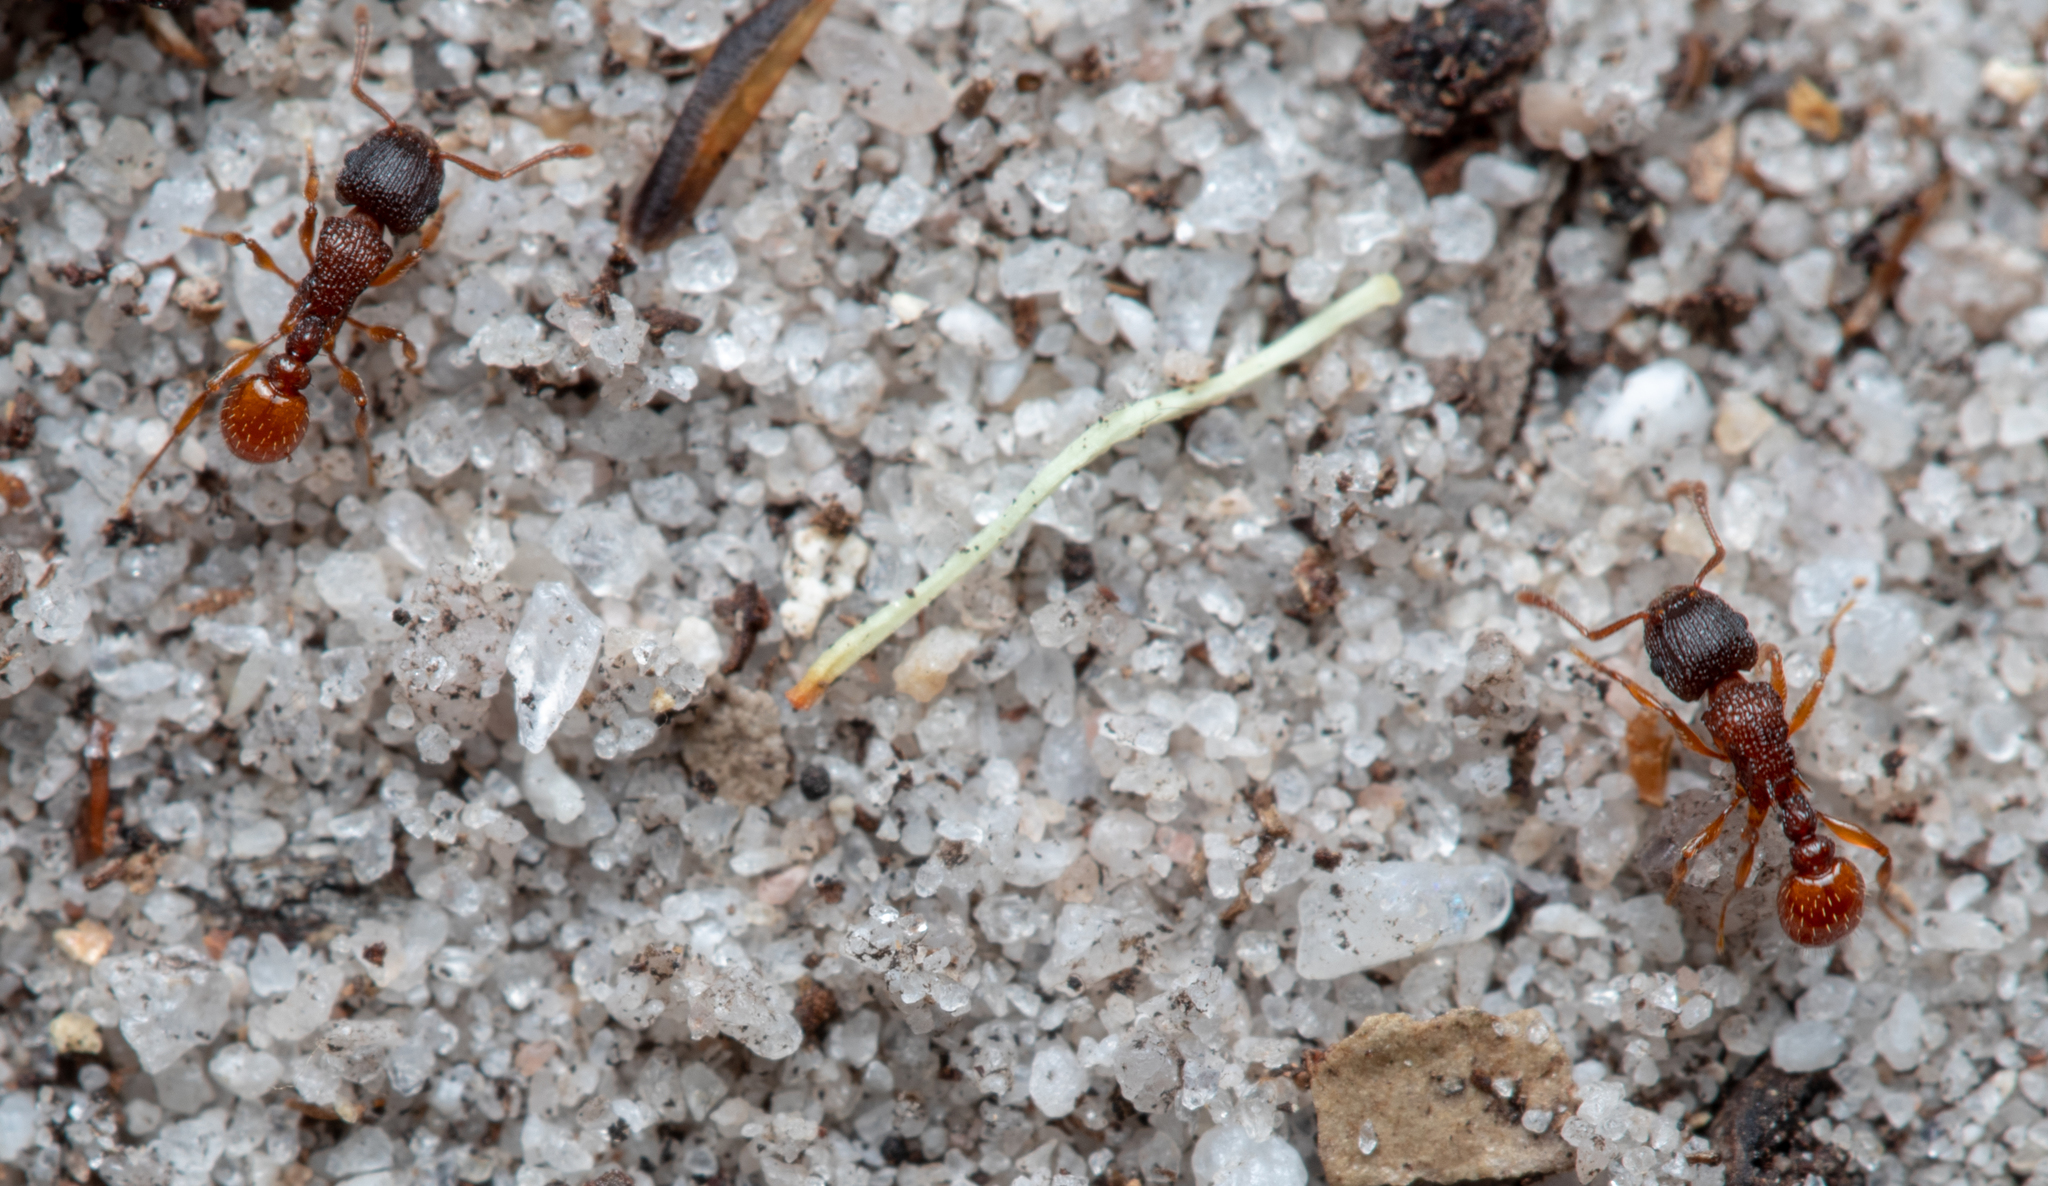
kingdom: Animalia
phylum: Arthropoda
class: Insecta
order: Hymenoptera
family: Formicidae
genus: Tetramorium
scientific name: Tetramorium fuscipes
